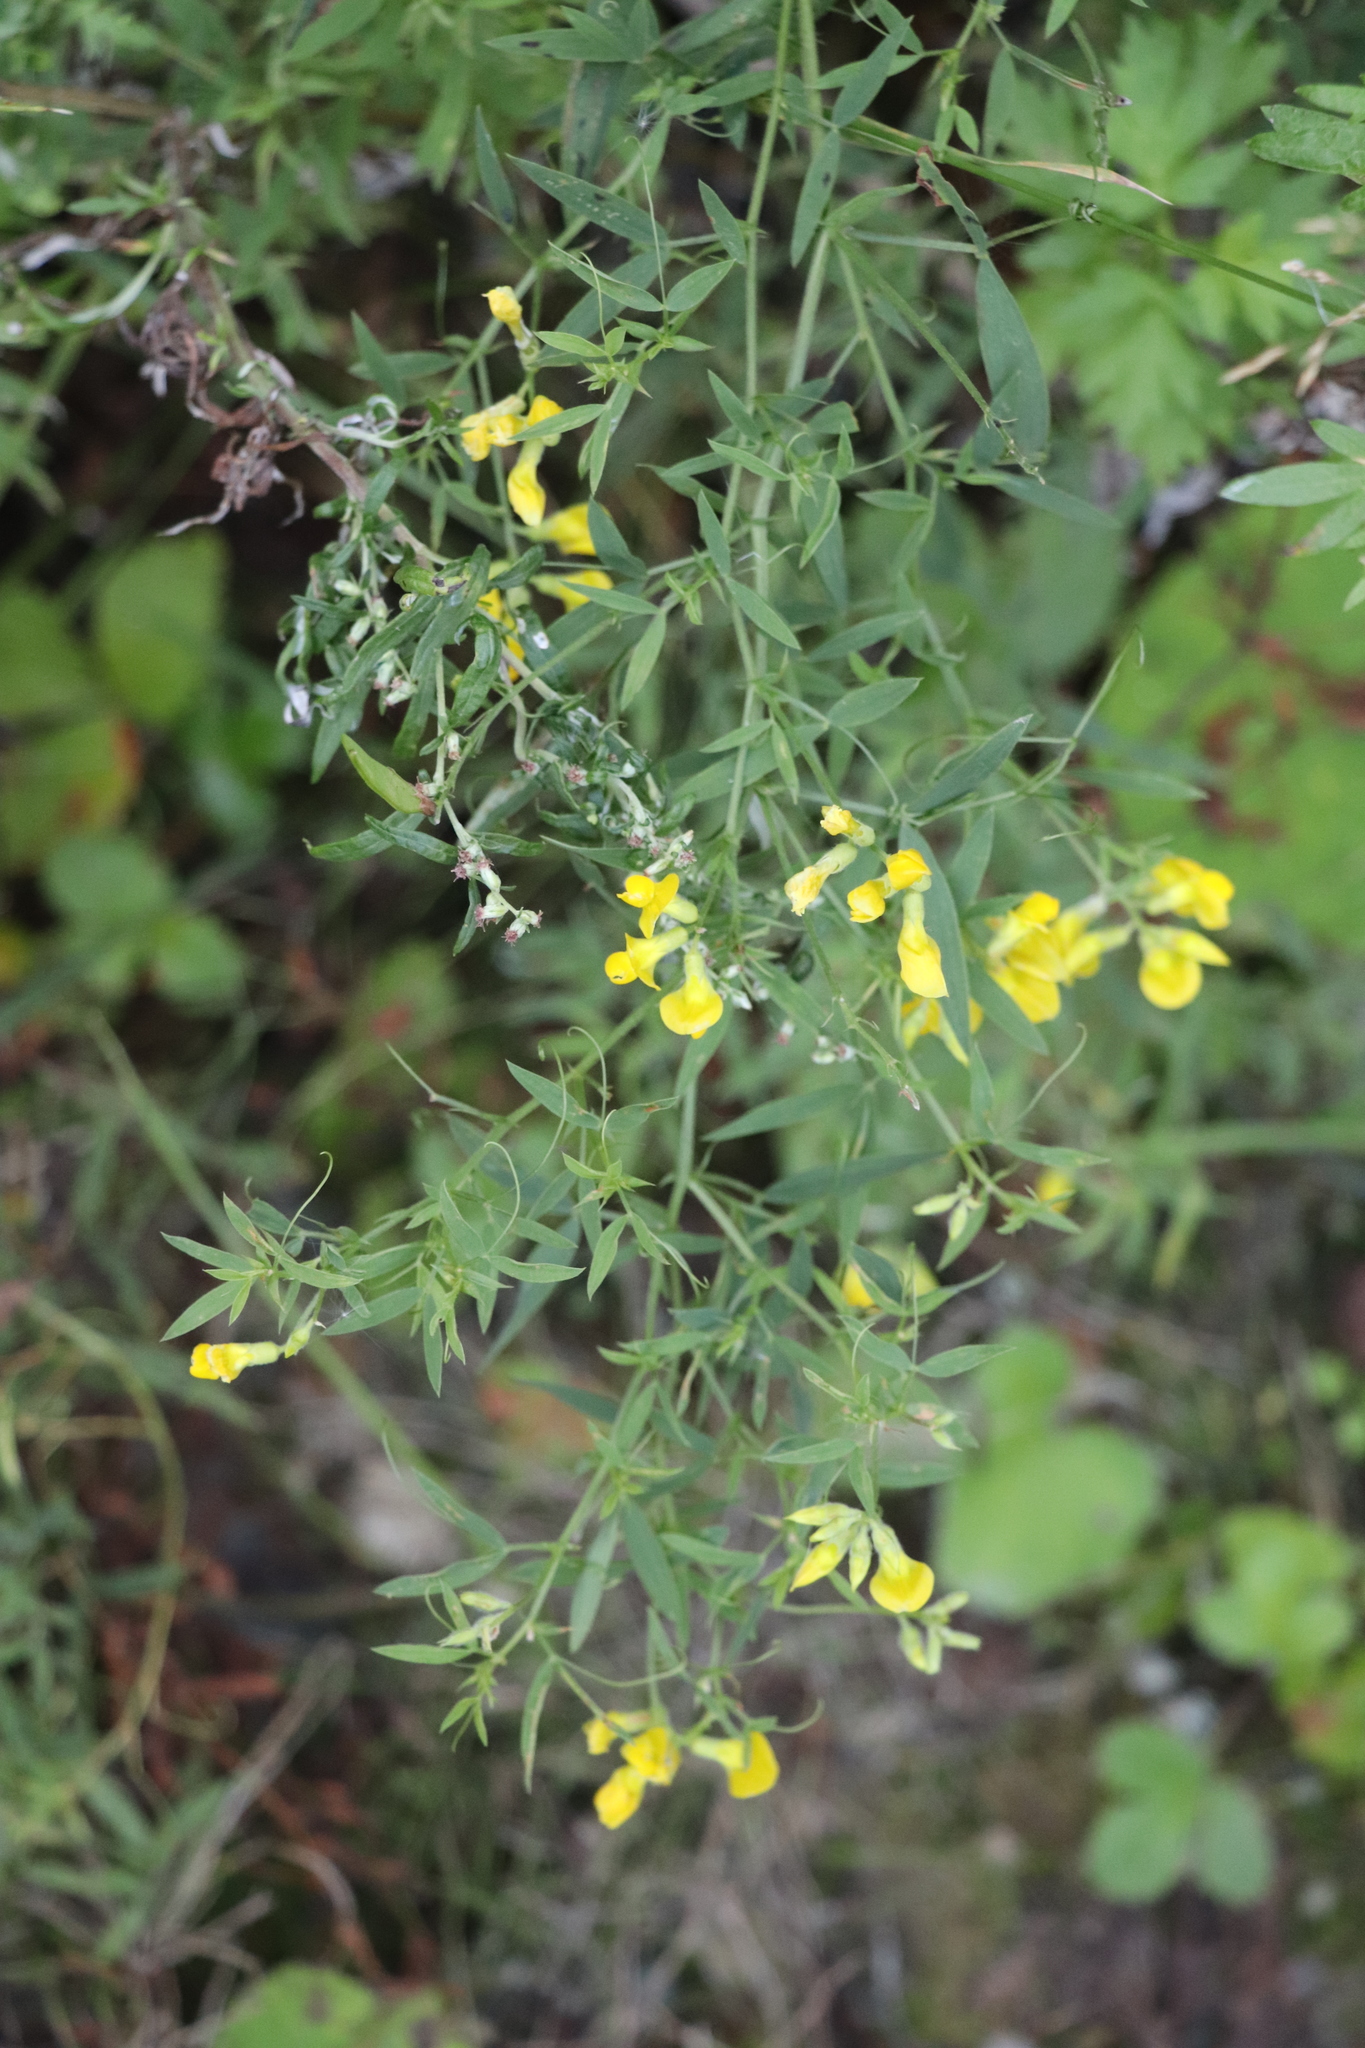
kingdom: Plantae
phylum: Tracheophyta
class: Magnoliopsida
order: Fabales
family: Fabaceae
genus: Lathyrus
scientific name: Lathyrus pratensis
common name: Meadow vetchling
